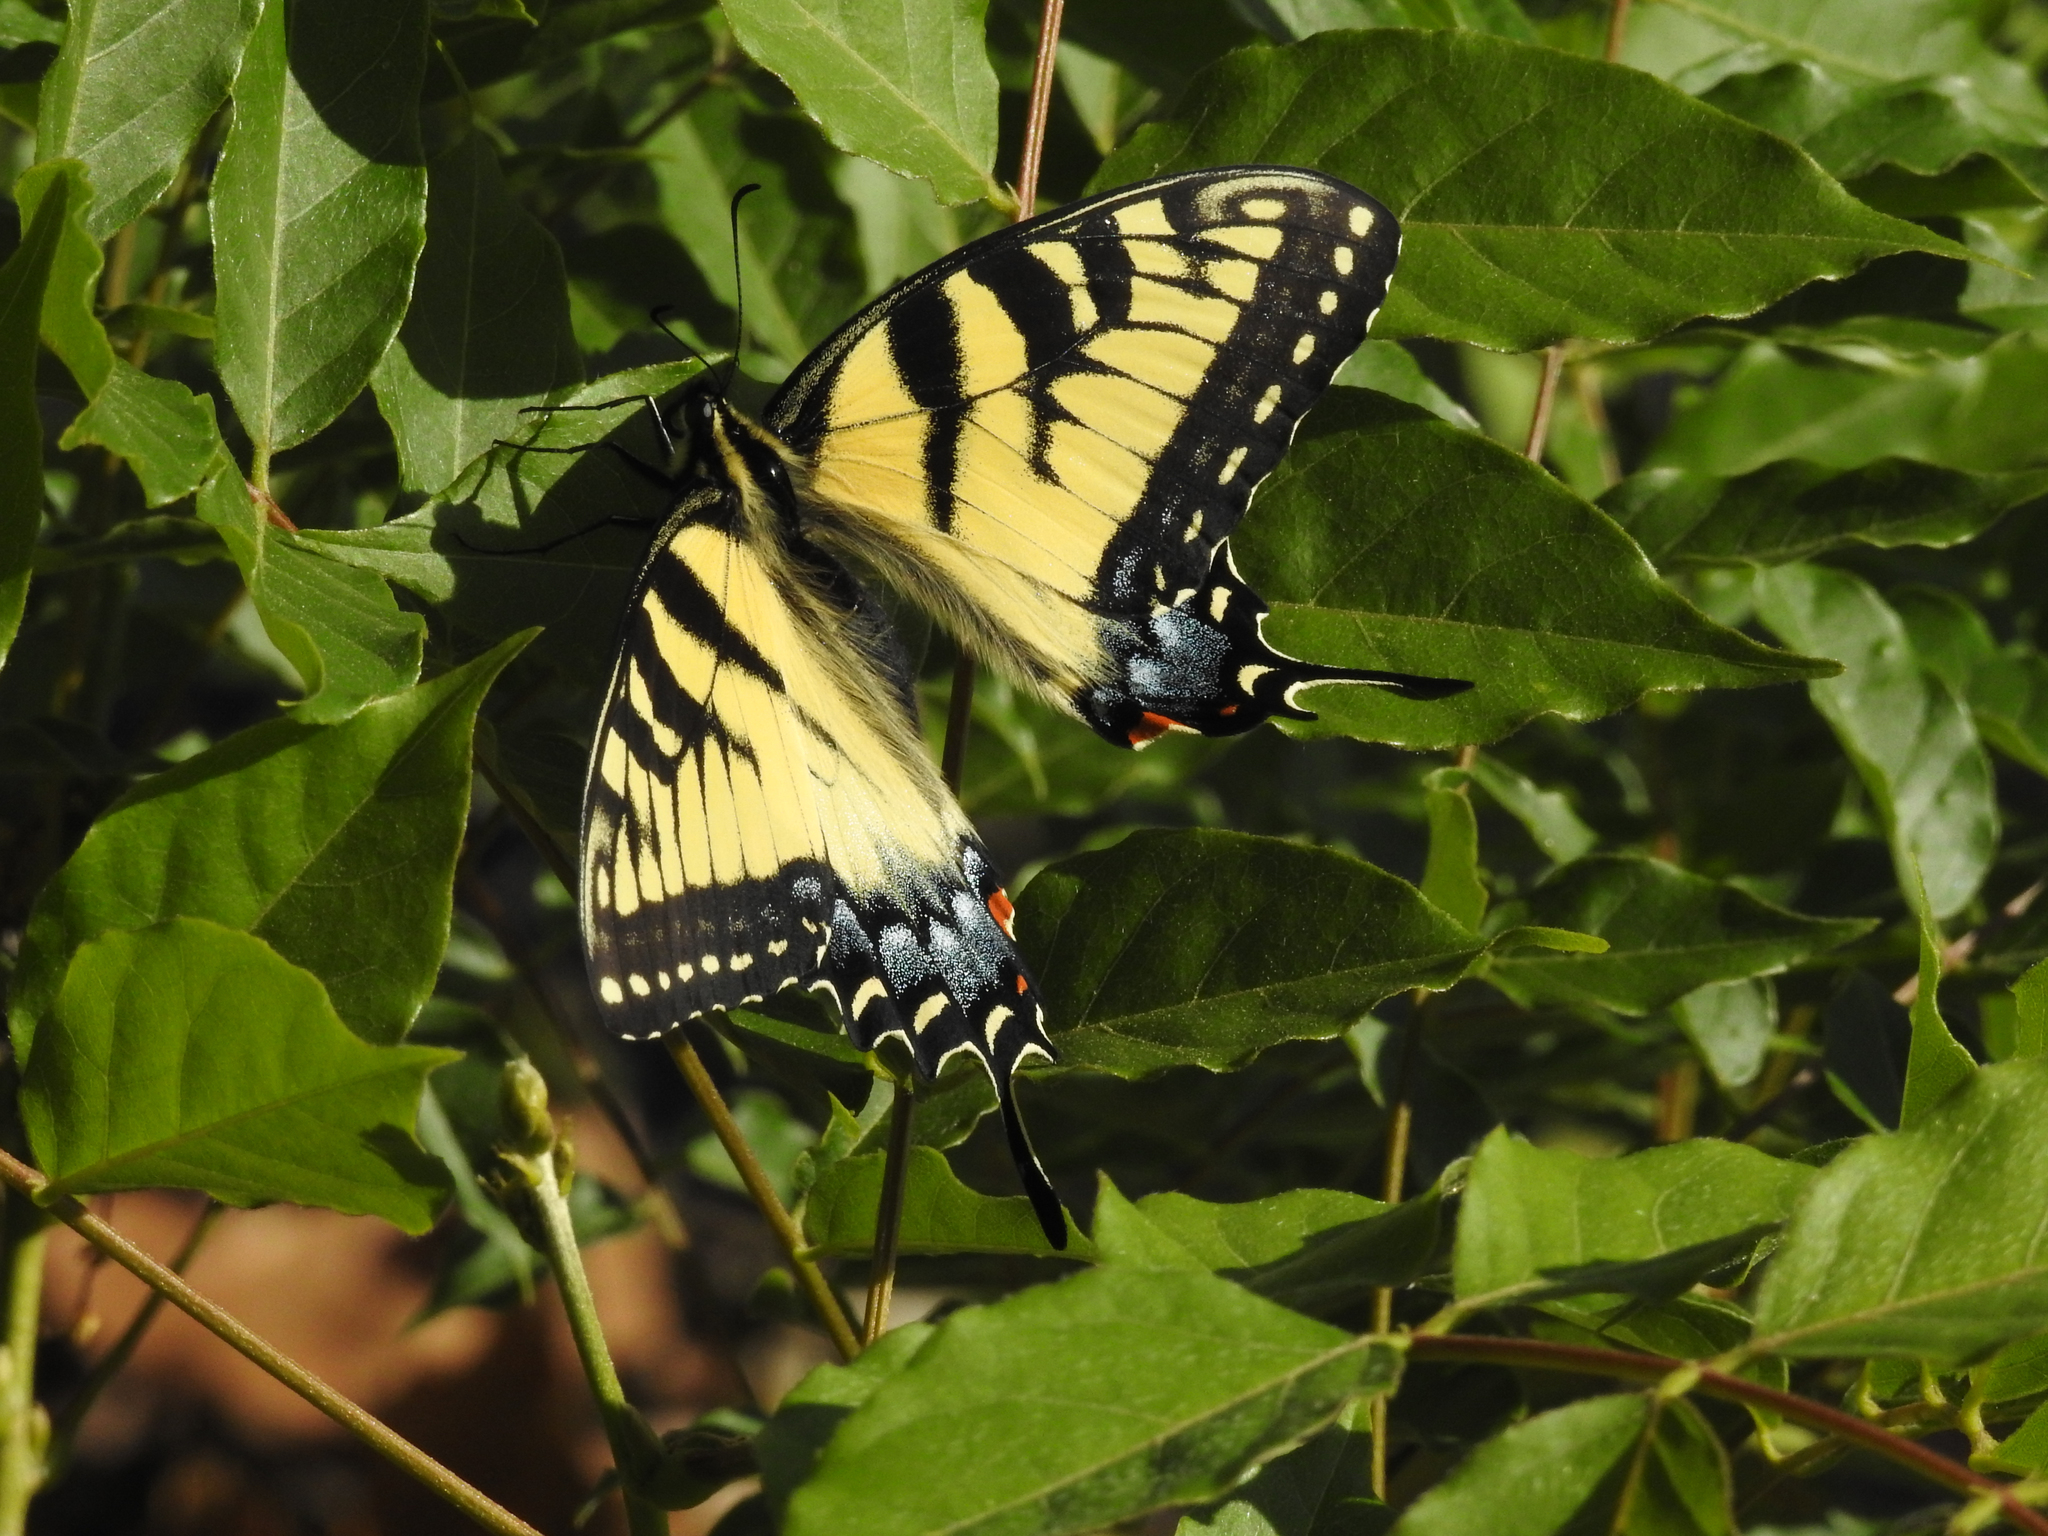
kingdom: Animalia
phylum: Arthropoda
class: Insecta
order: Lepidoptera
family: Papilionidae
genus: Papilio
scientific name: Papilio glaucus
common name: Tiger swallowtail
